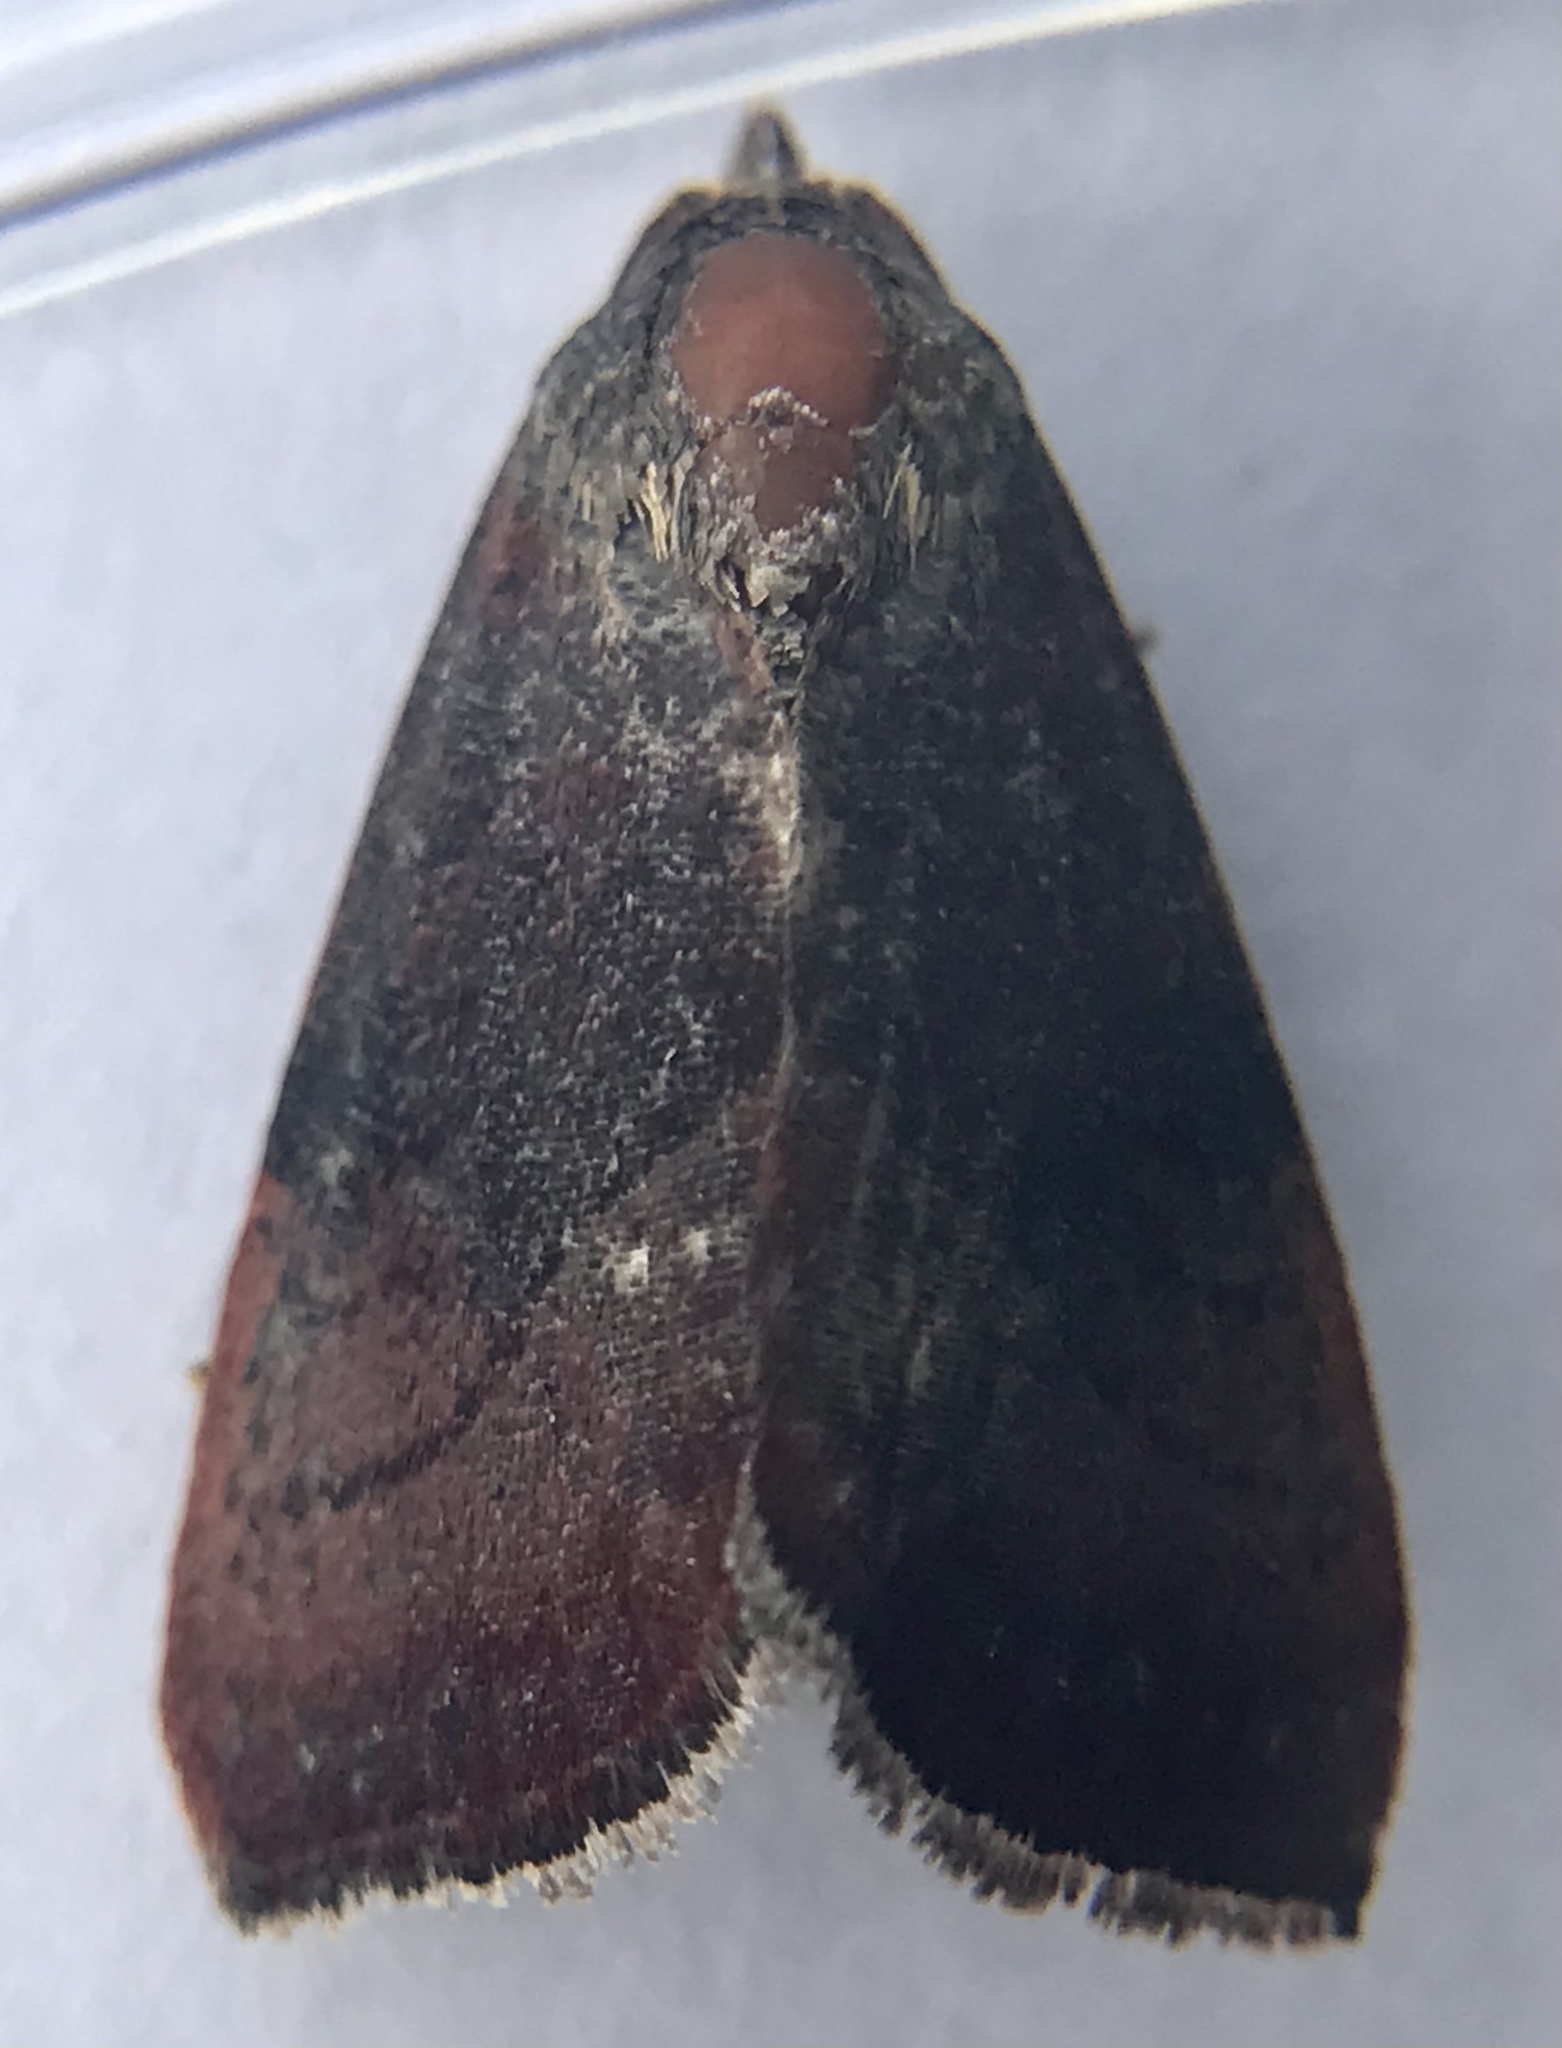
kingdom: Animalia
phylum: Arthropoda
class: Insecta
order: Lepidoptera
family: Noctuidae
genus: Galgula
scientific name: Galgula partita
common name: Wedgeling
